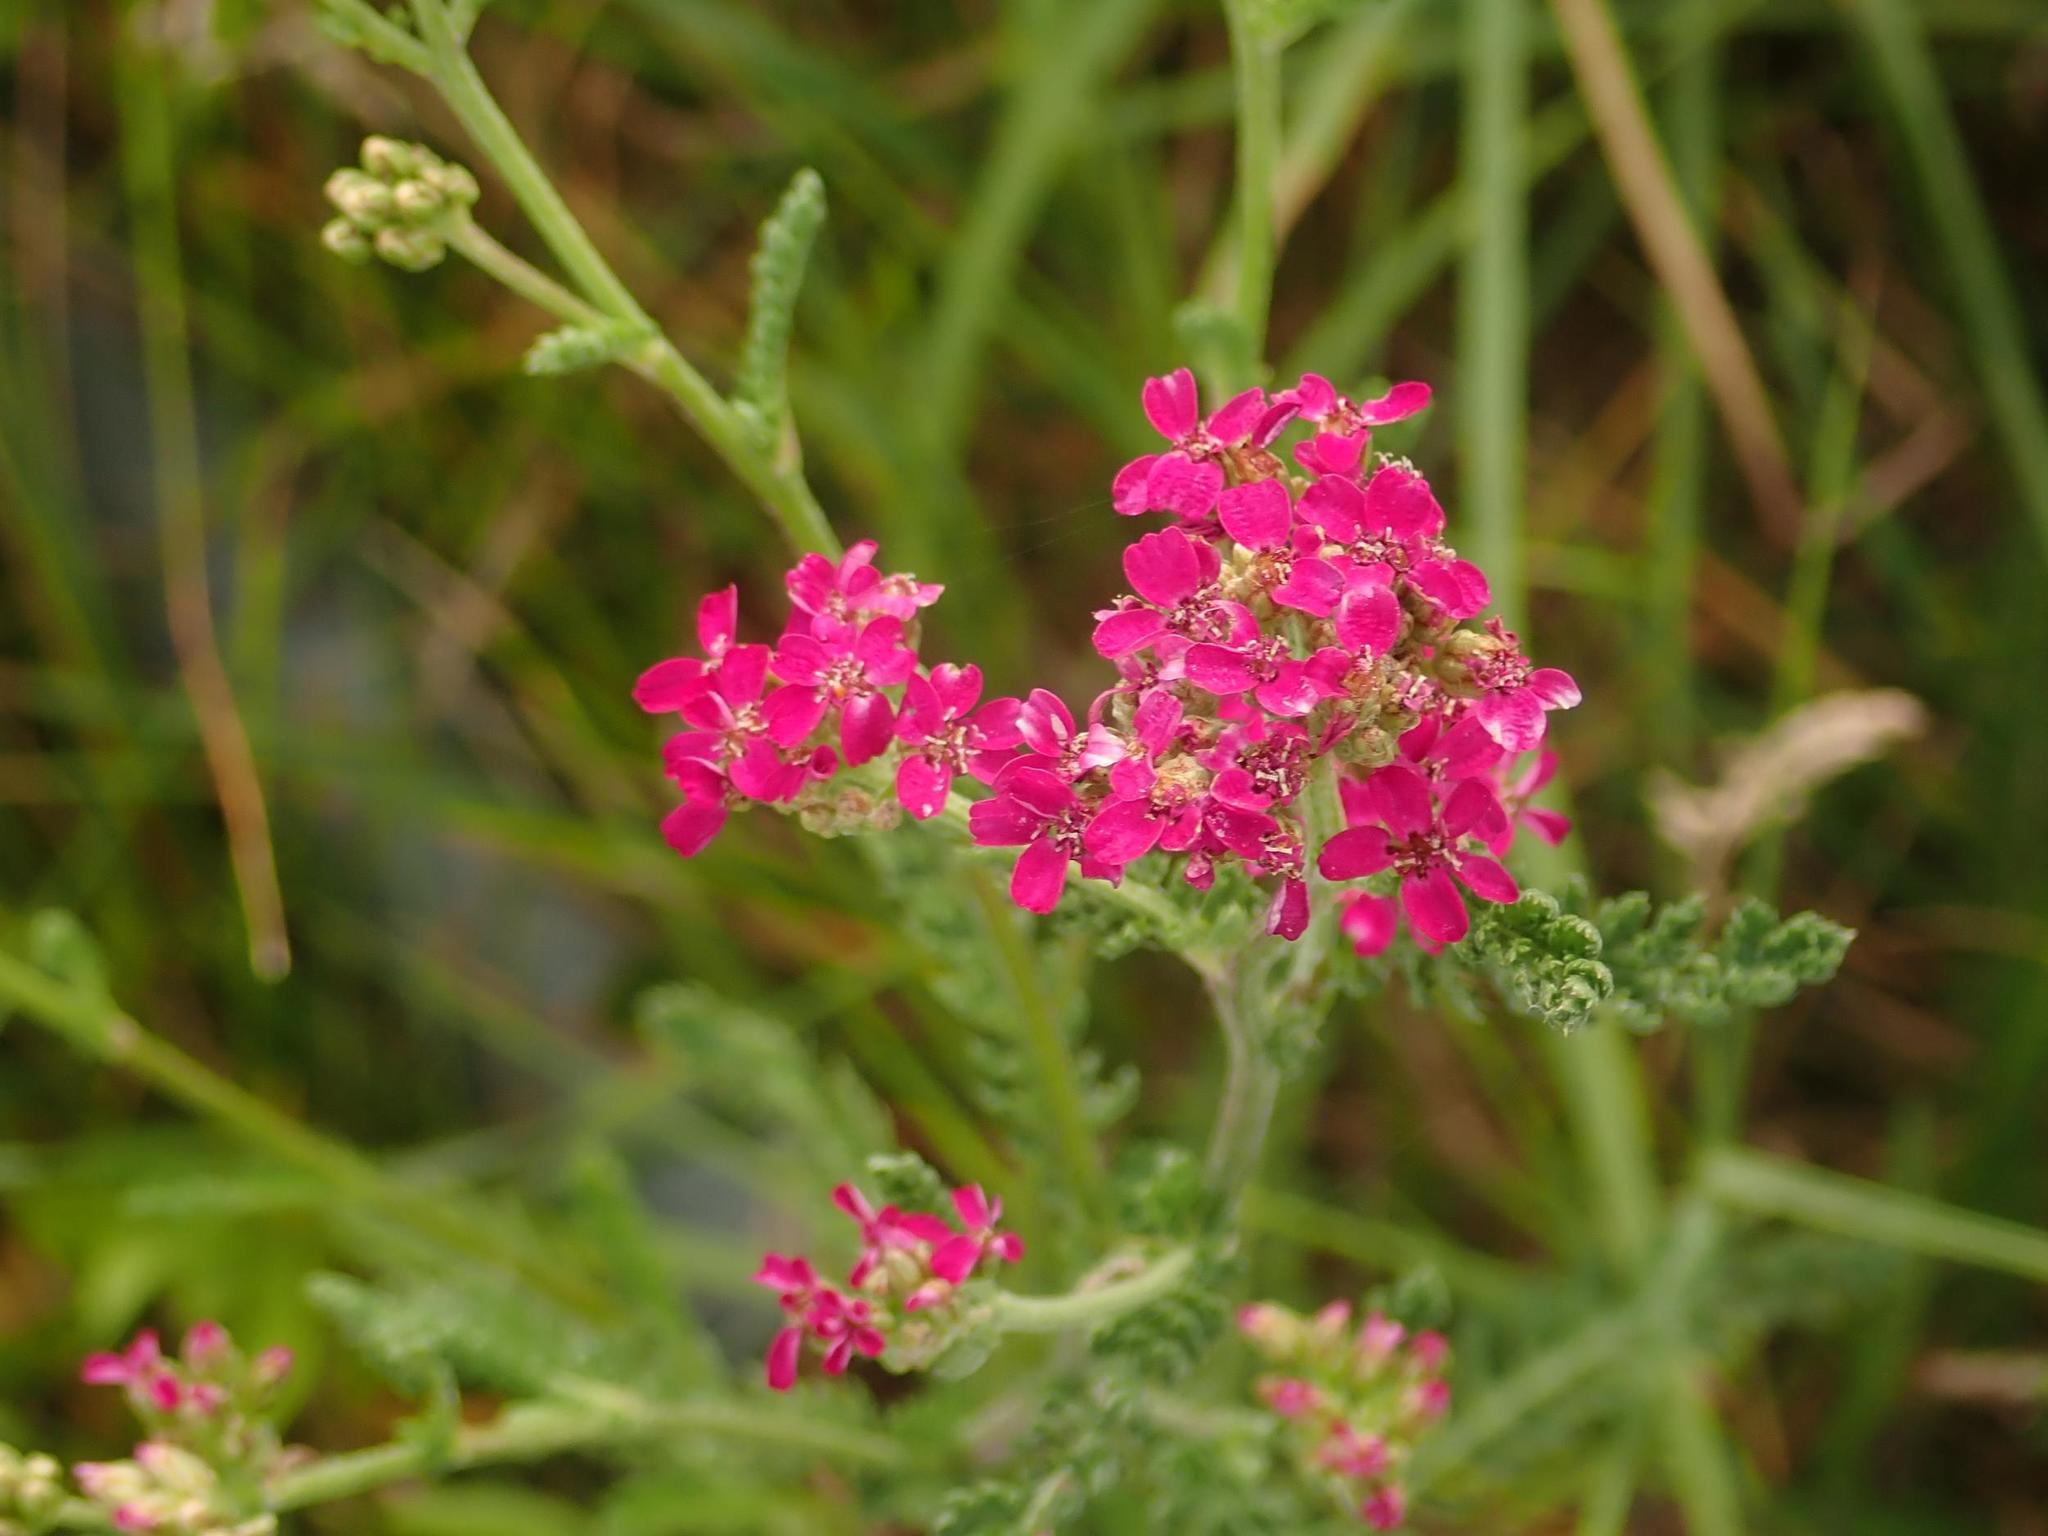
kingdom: Plantae
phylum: Tracheophyta
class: Magnoliopsida
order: Asterales
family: Asteraceae
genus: Achillea
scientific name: Achillea millefolium
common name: Yarrow
